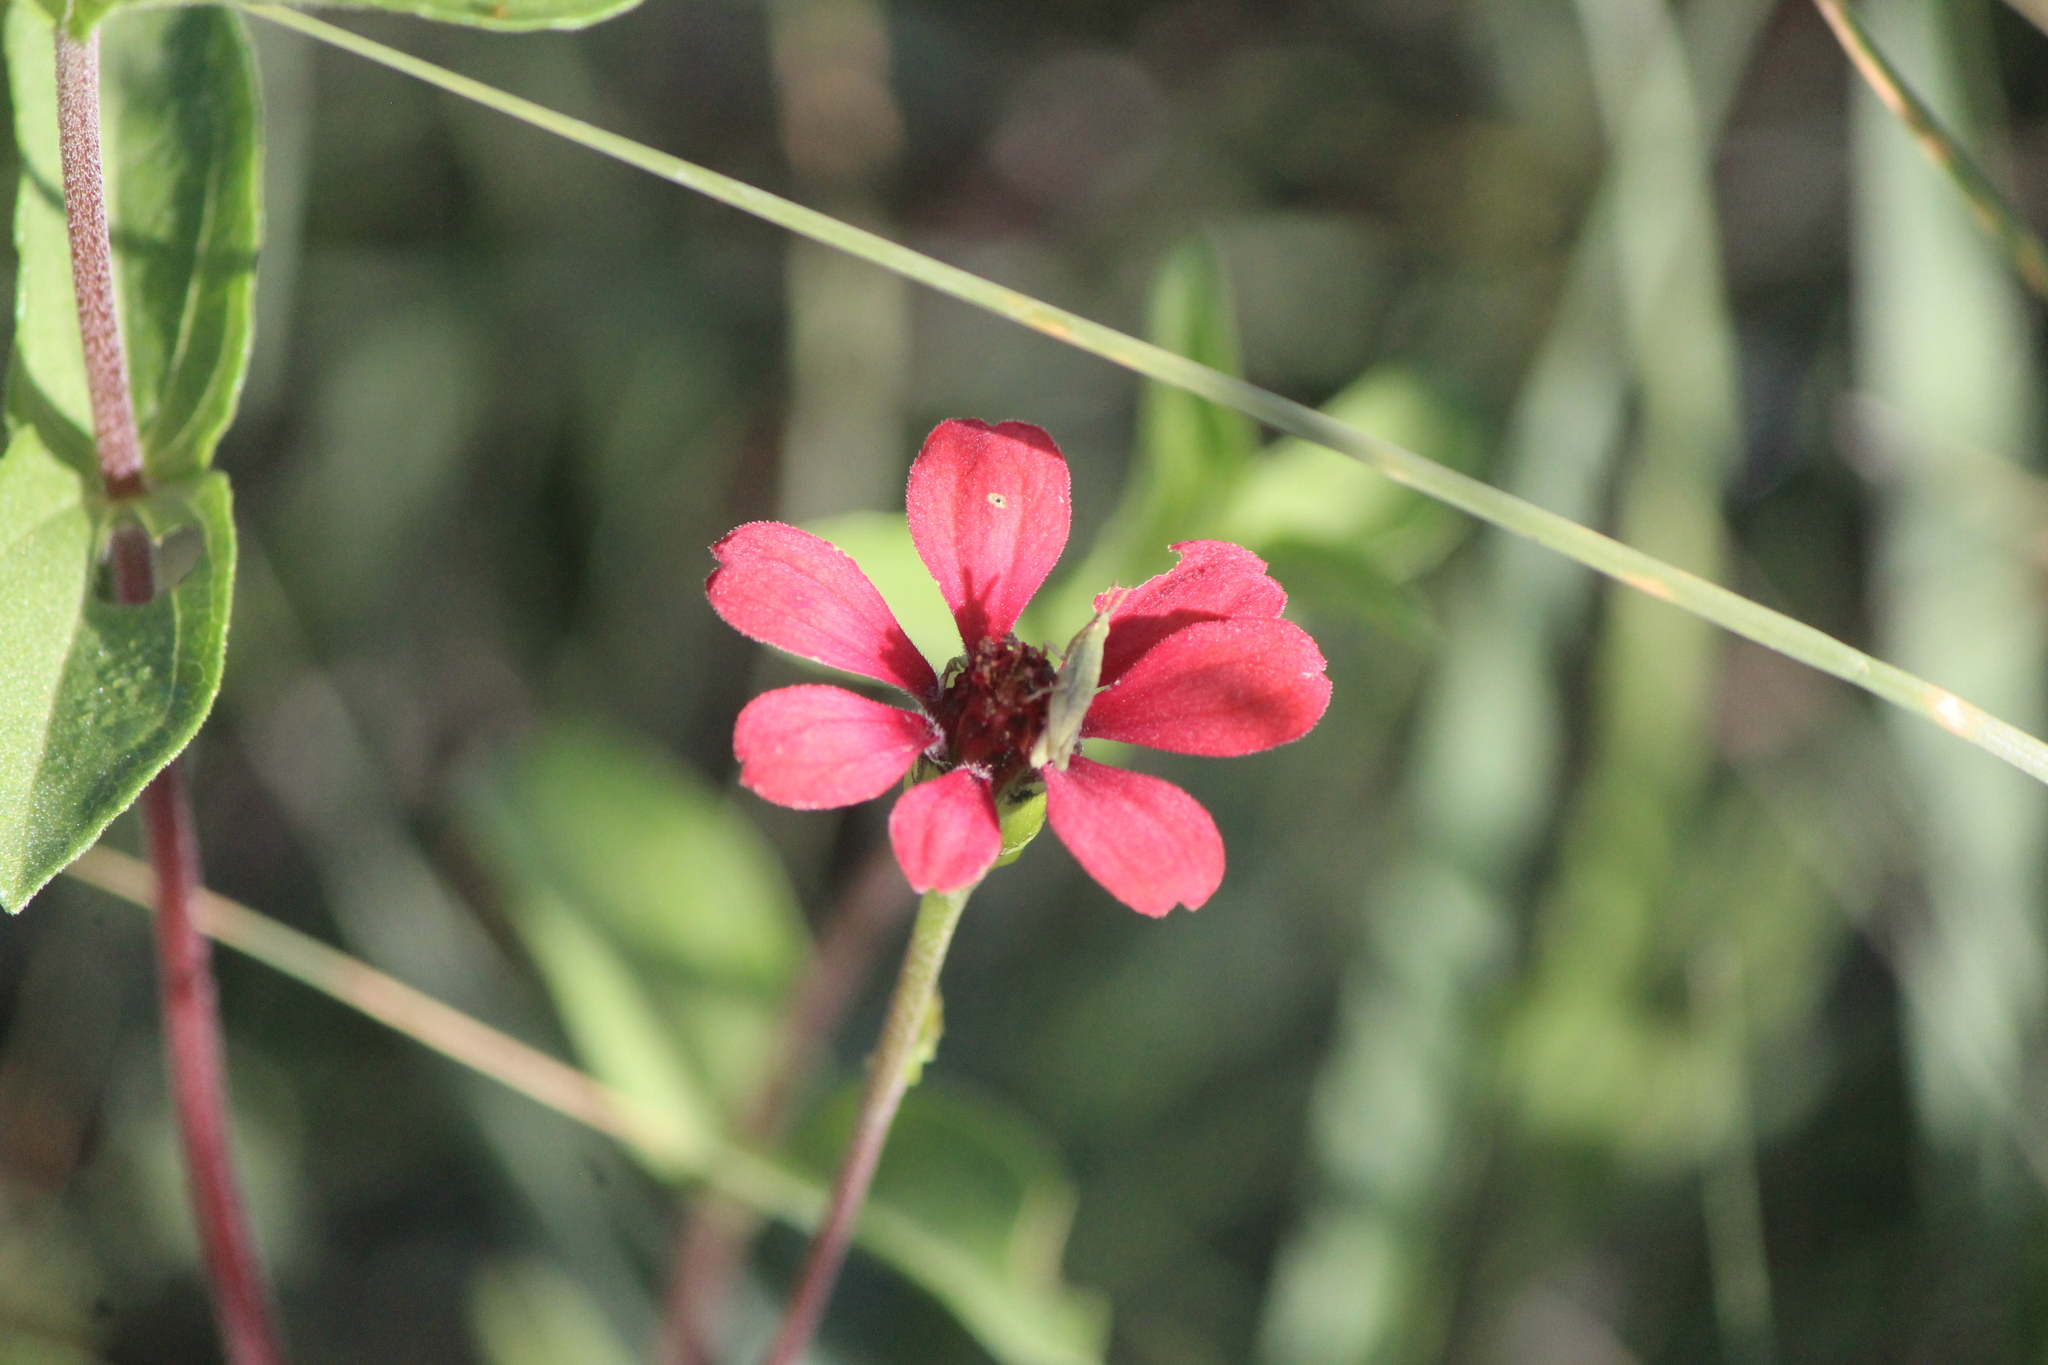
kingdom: Plantae
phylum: Tracheophyta
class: Magnoliopsida
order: Asterales
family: Asteraceae
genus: Zinnia
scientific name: Zinnia peruviana
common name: Peruvian zinnia
